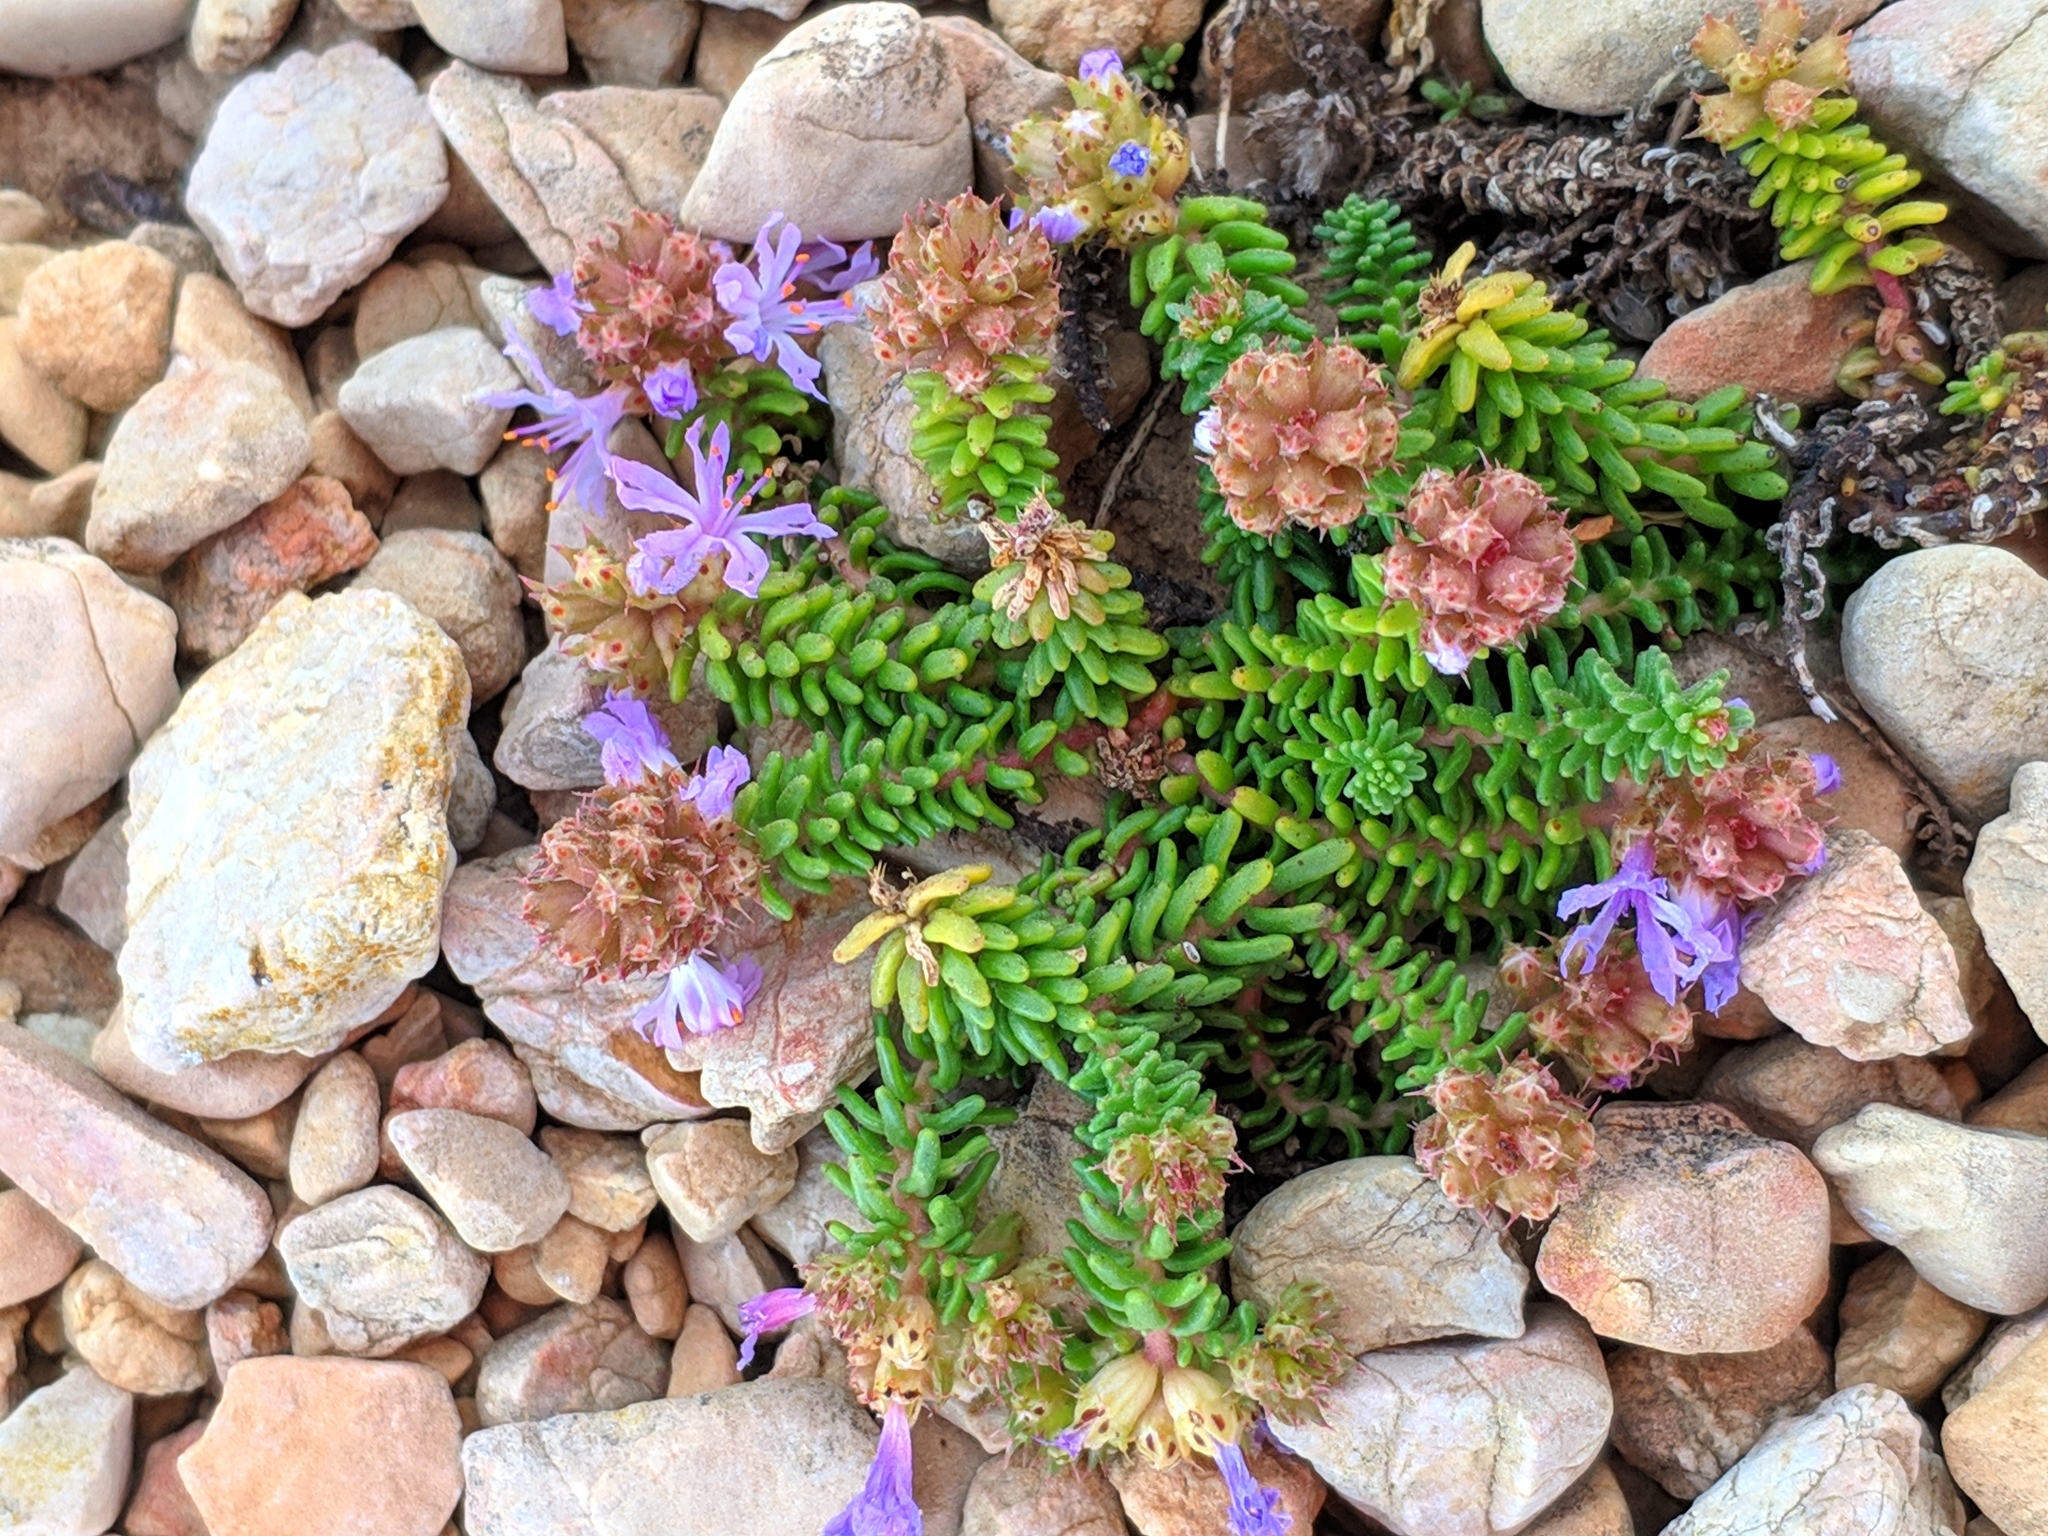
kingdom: Plantae
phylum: Tracheophyta
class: Magnoliopsida
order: Ericales
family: Primulaceae
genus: Coris
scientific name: Coris monspeliensis
